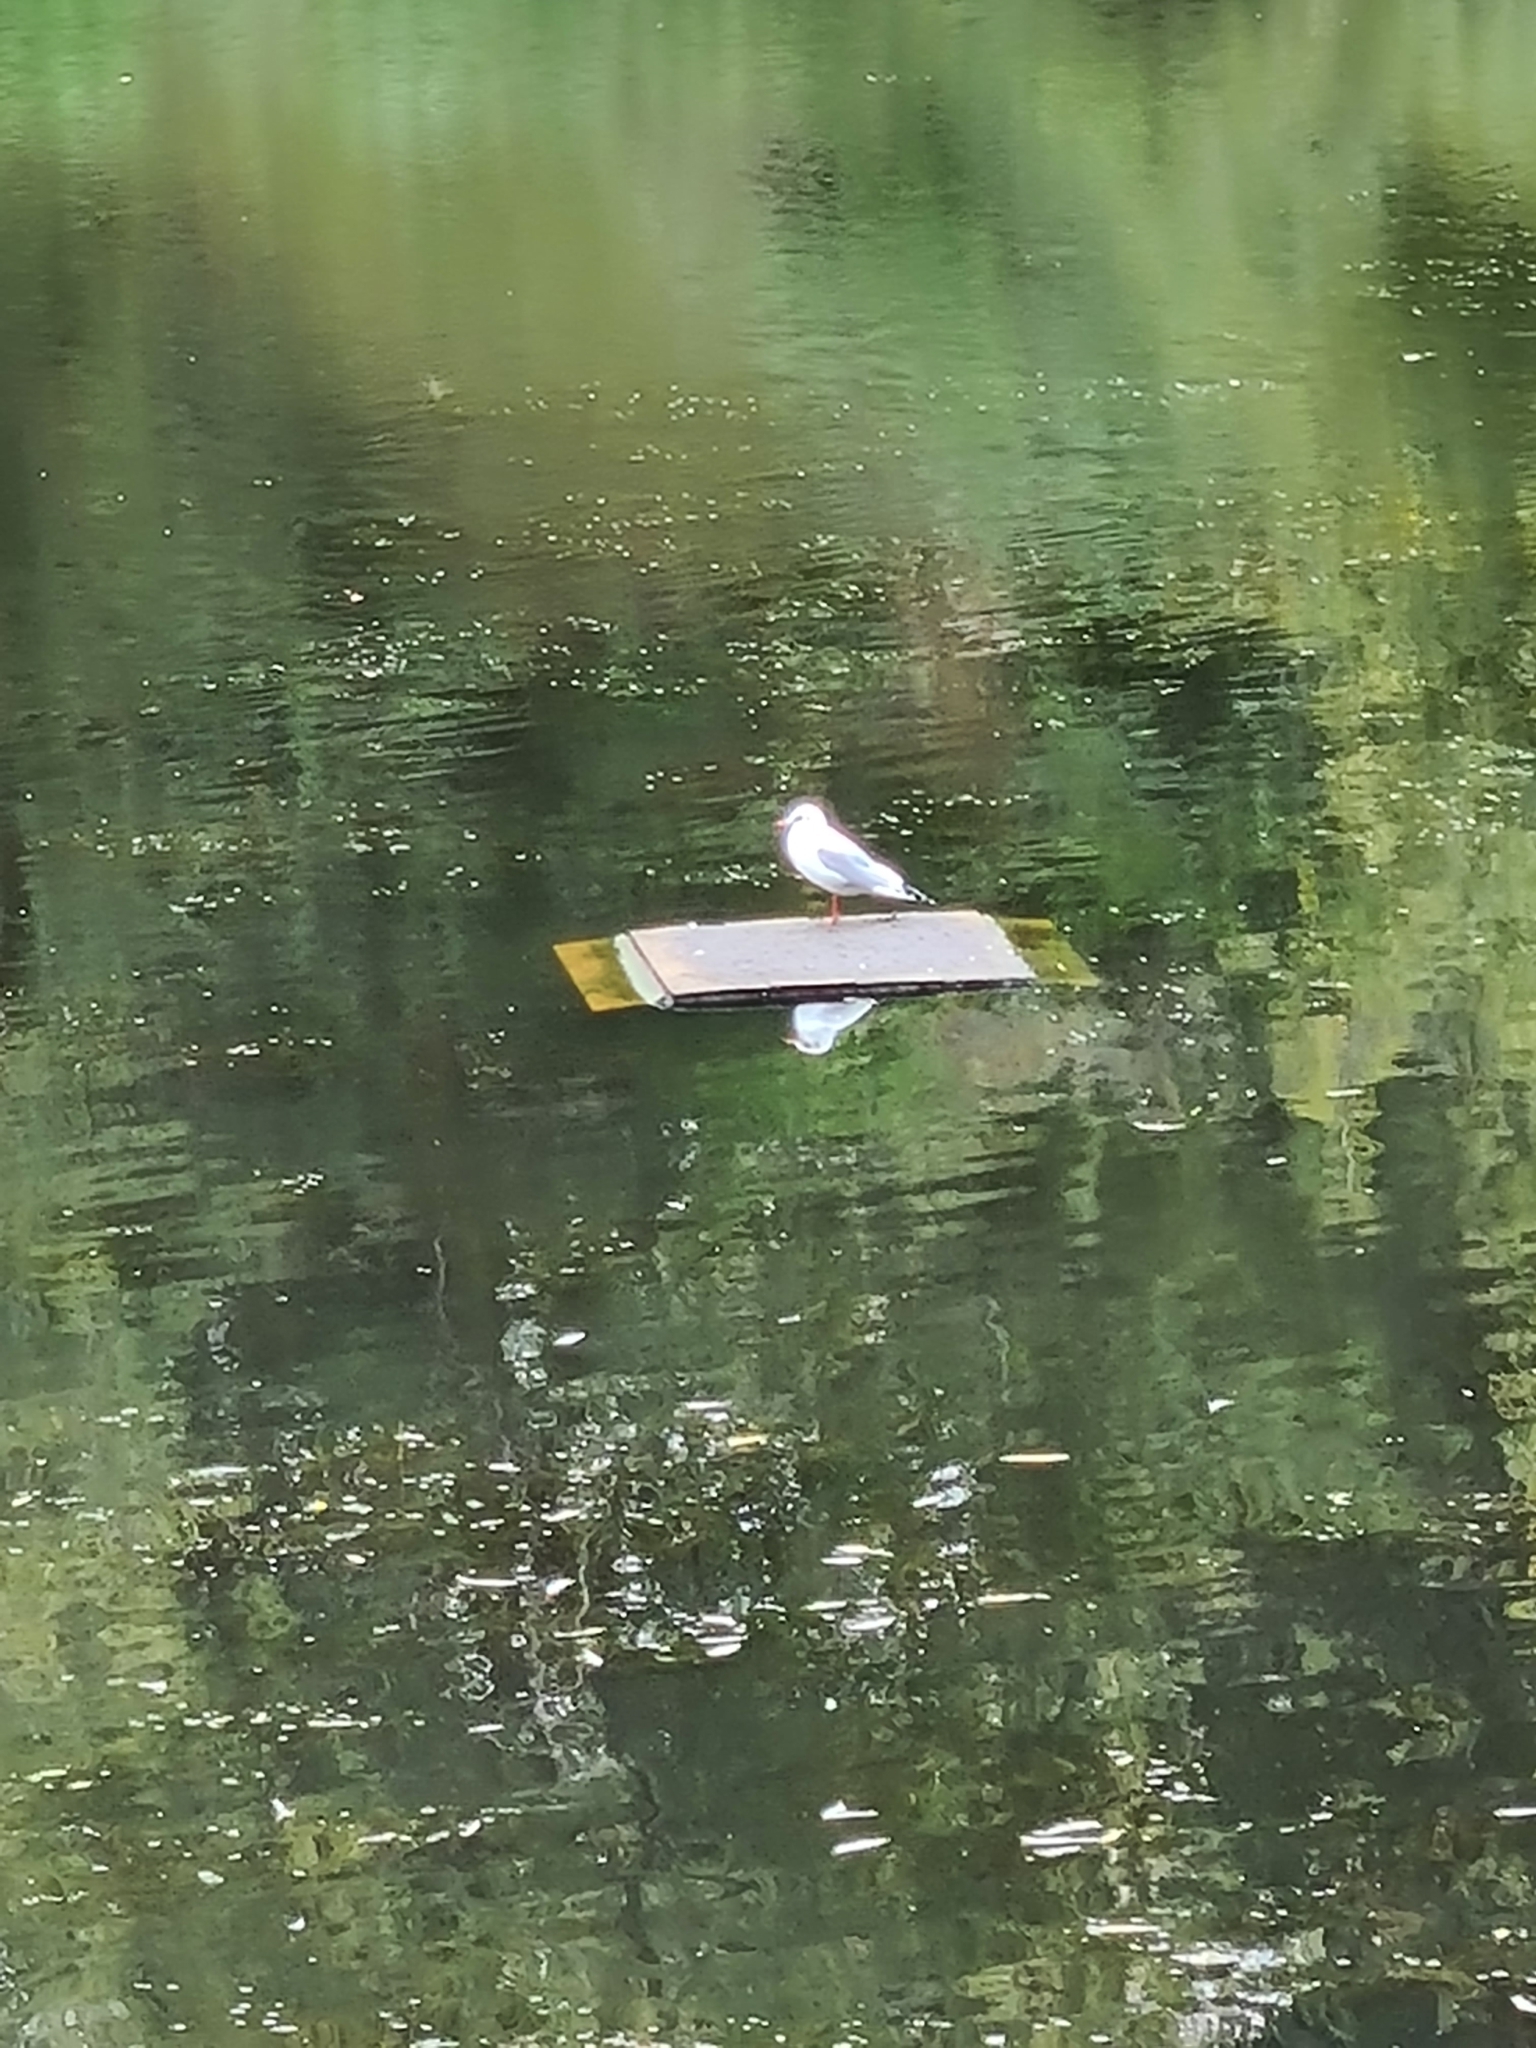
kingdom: Animalia
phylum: Chordata
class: Aves
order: Charadriiformes
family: Laridae
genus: Chroicocephalus
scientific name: Chroicocephalus ridibundus
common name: Black-headed gull
